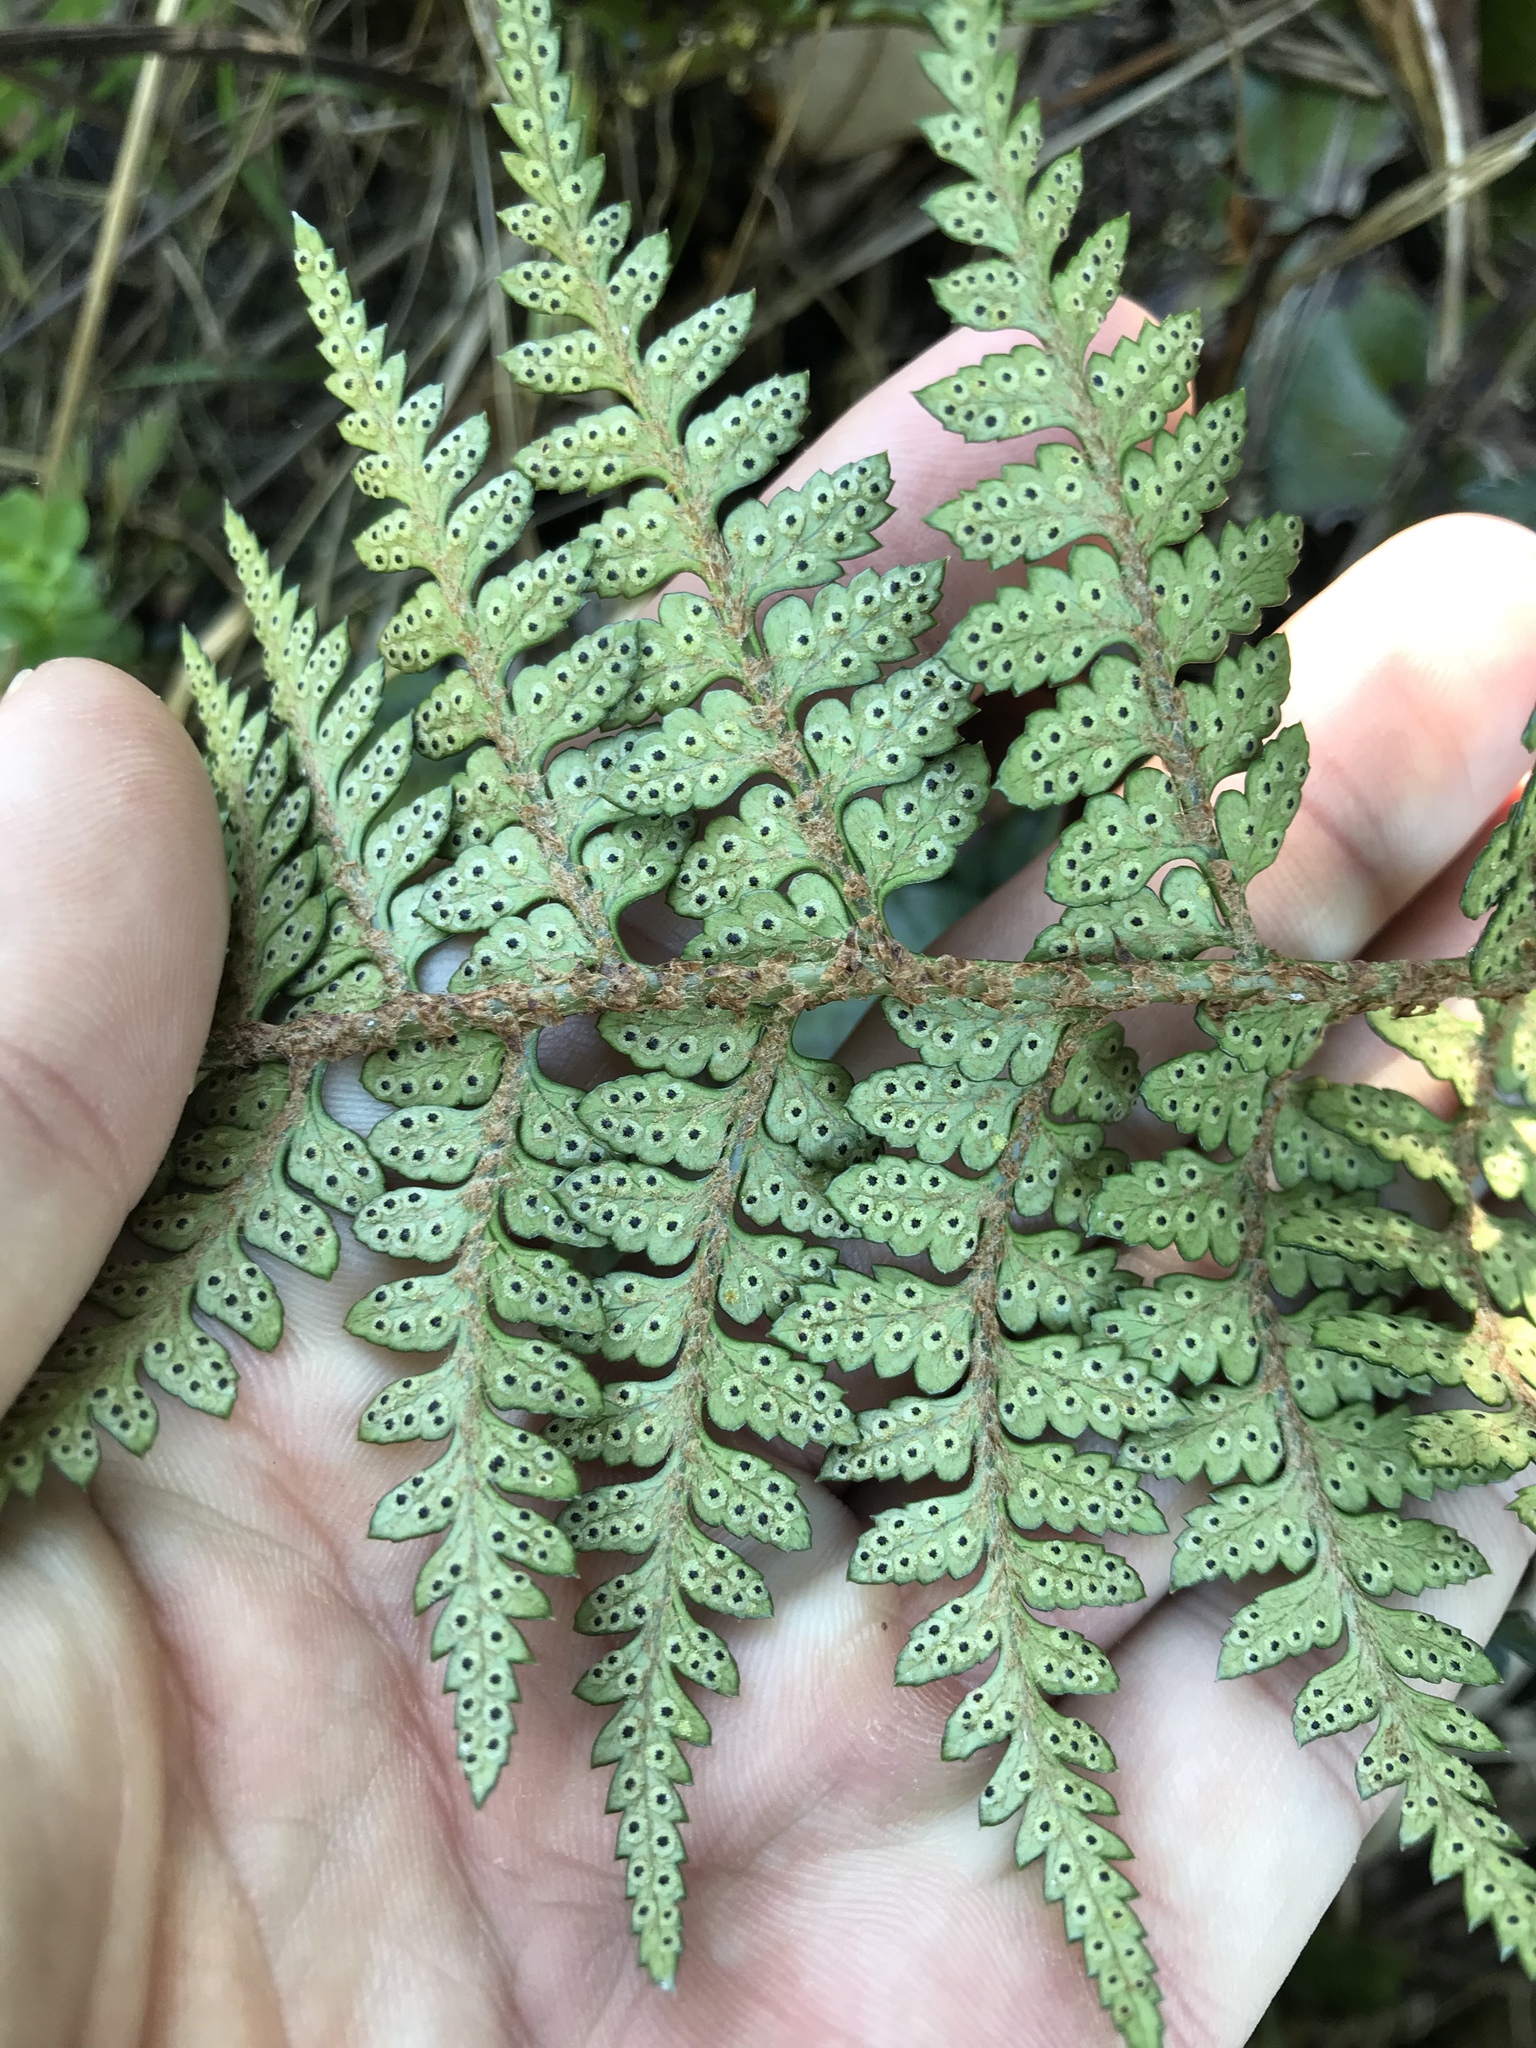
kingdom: Plantae
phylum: Tracheophyta
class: Polypodiopsida
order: Polypodiales
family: Dryopteridaceae
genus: Polystichum
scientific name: Polystichum oculatum
